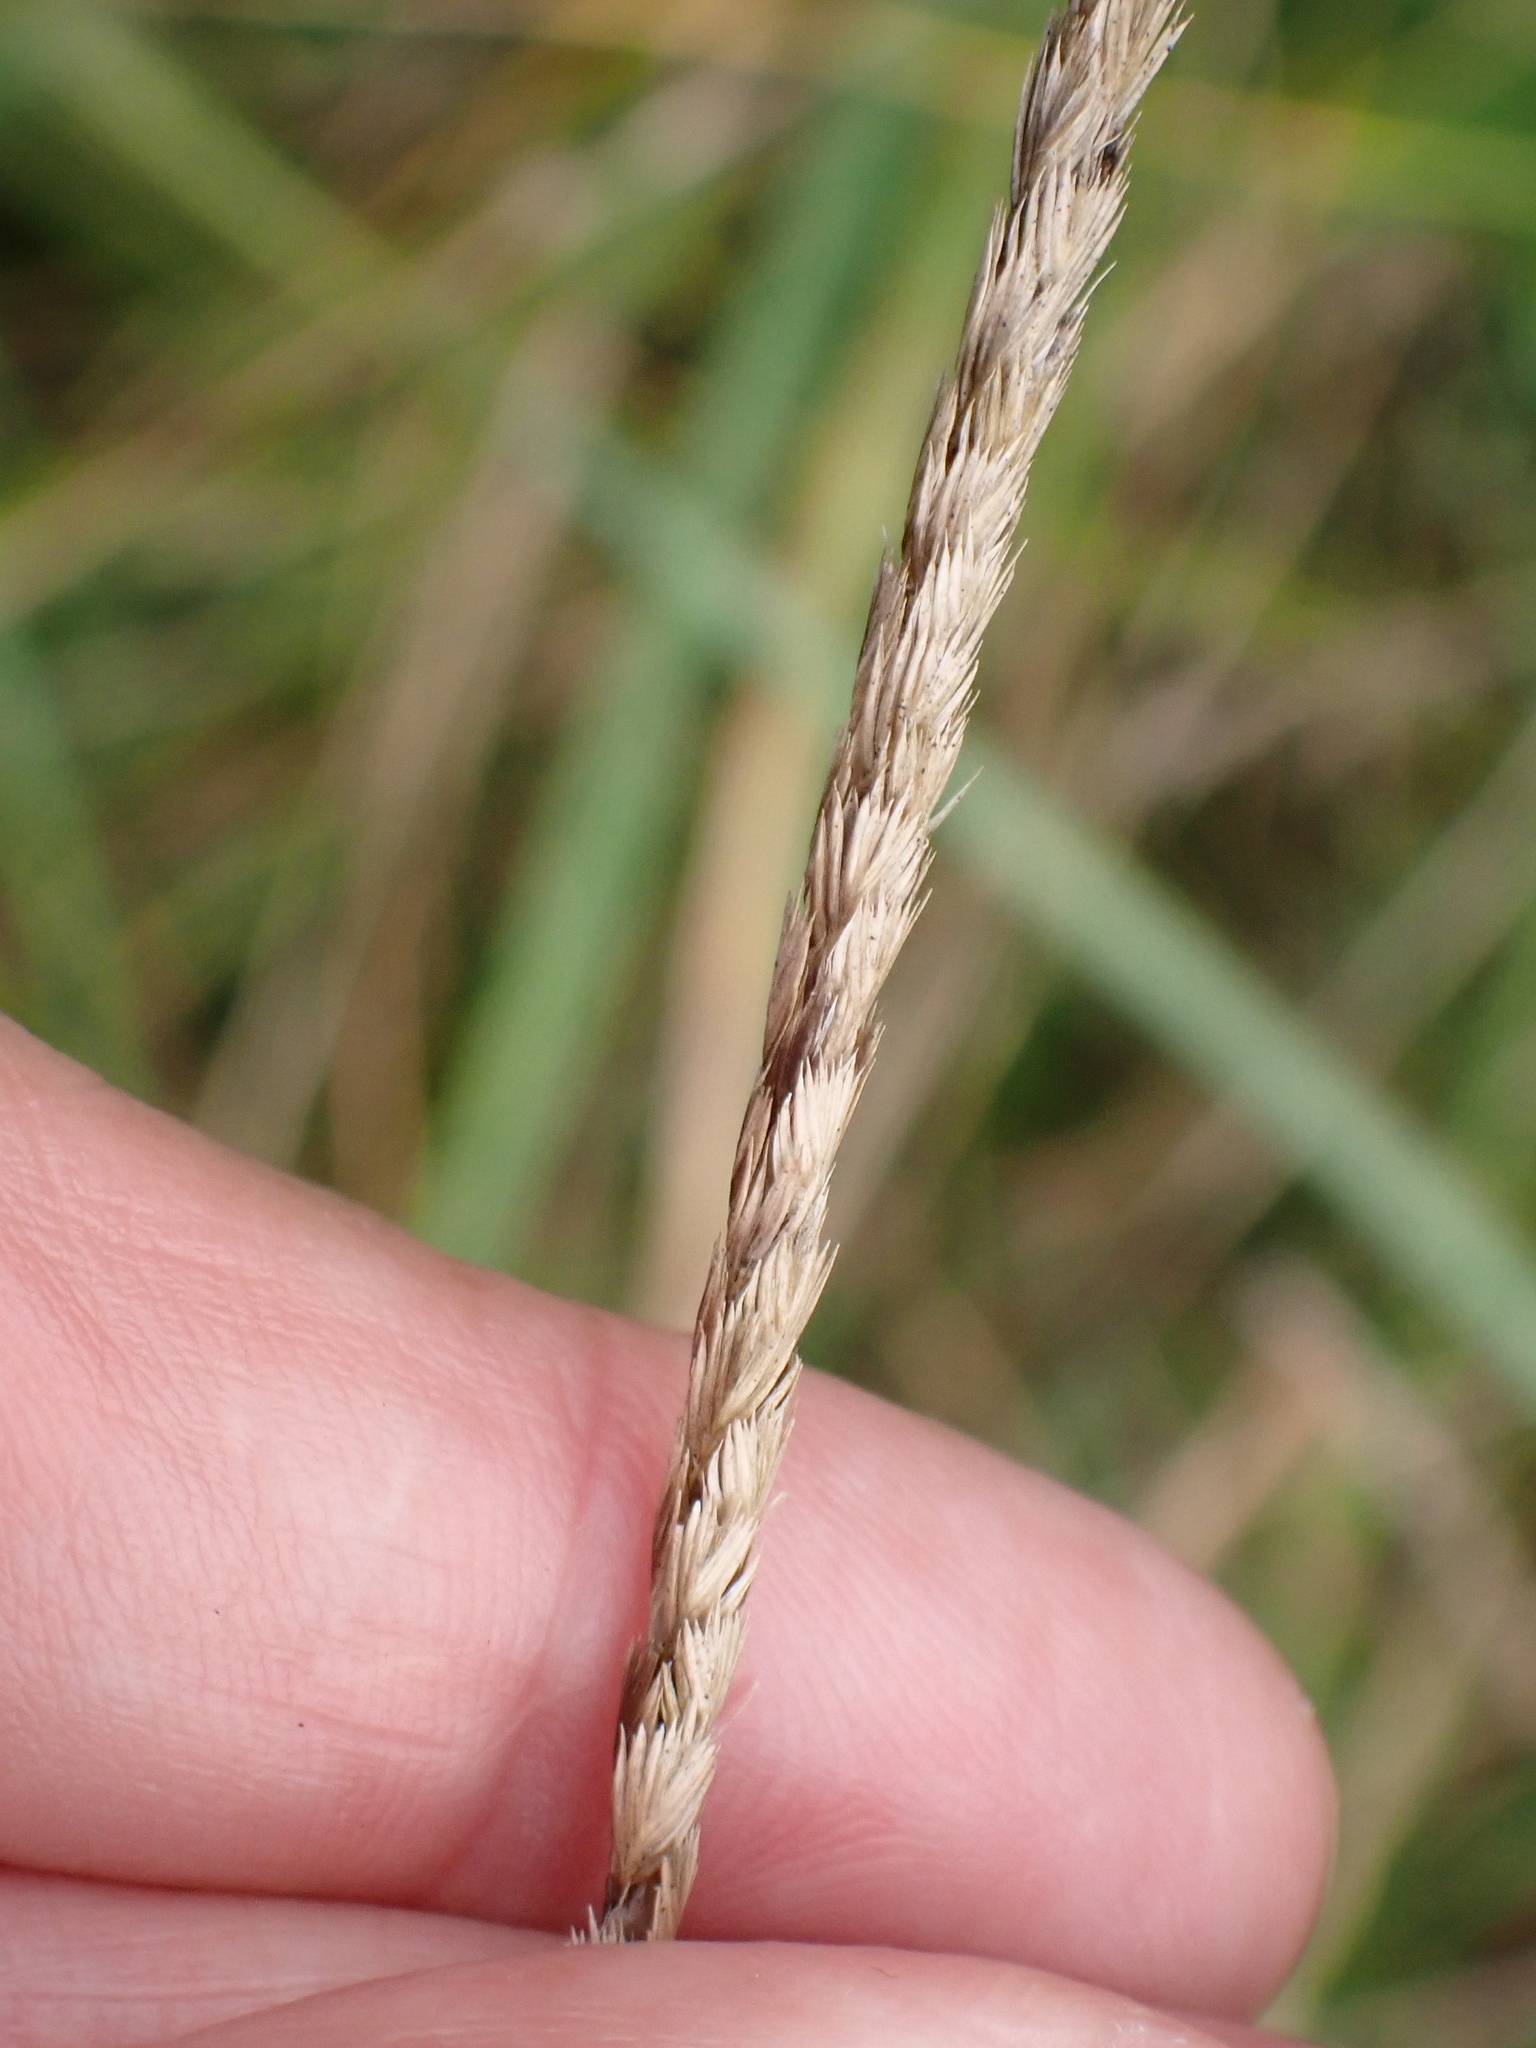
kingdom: Plantae
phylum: Tracheophyta
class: Liliopsida
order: Poales
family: Poaceae
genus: Cynosurus
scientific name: Cynosurus cristatus
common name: Crested dog's-tail
